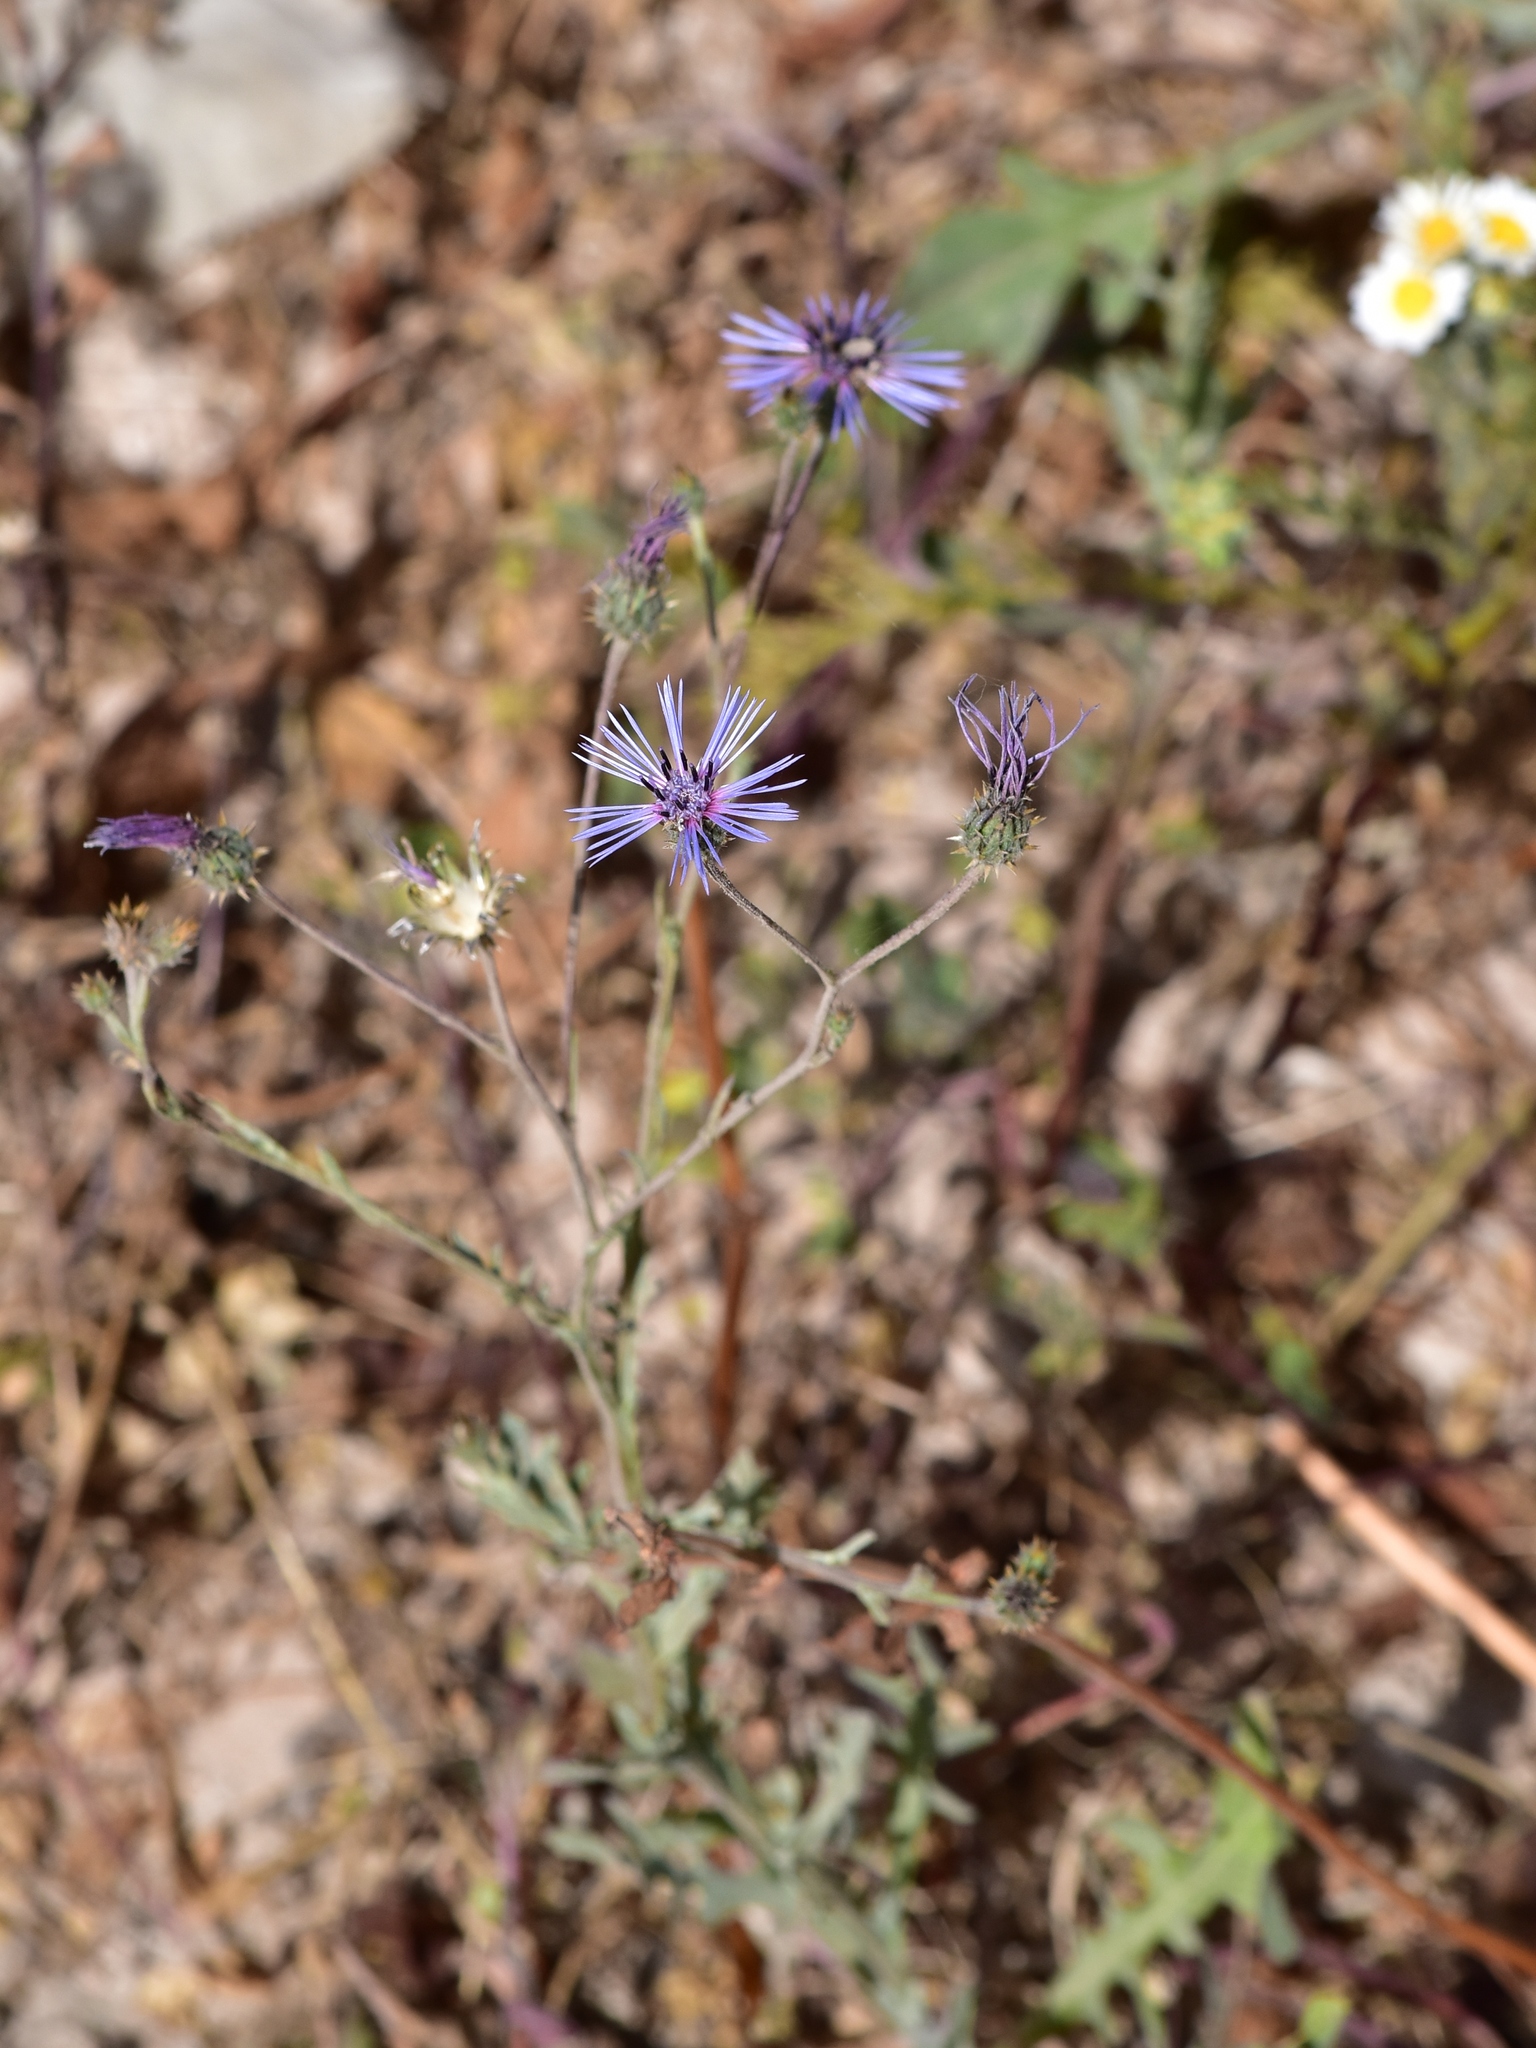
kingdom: Plantae
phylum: Tracheophyta
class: Magnoliopsida
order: Asterales
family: Asteraceae
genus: Volutaria
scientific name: Volutaria lippii
